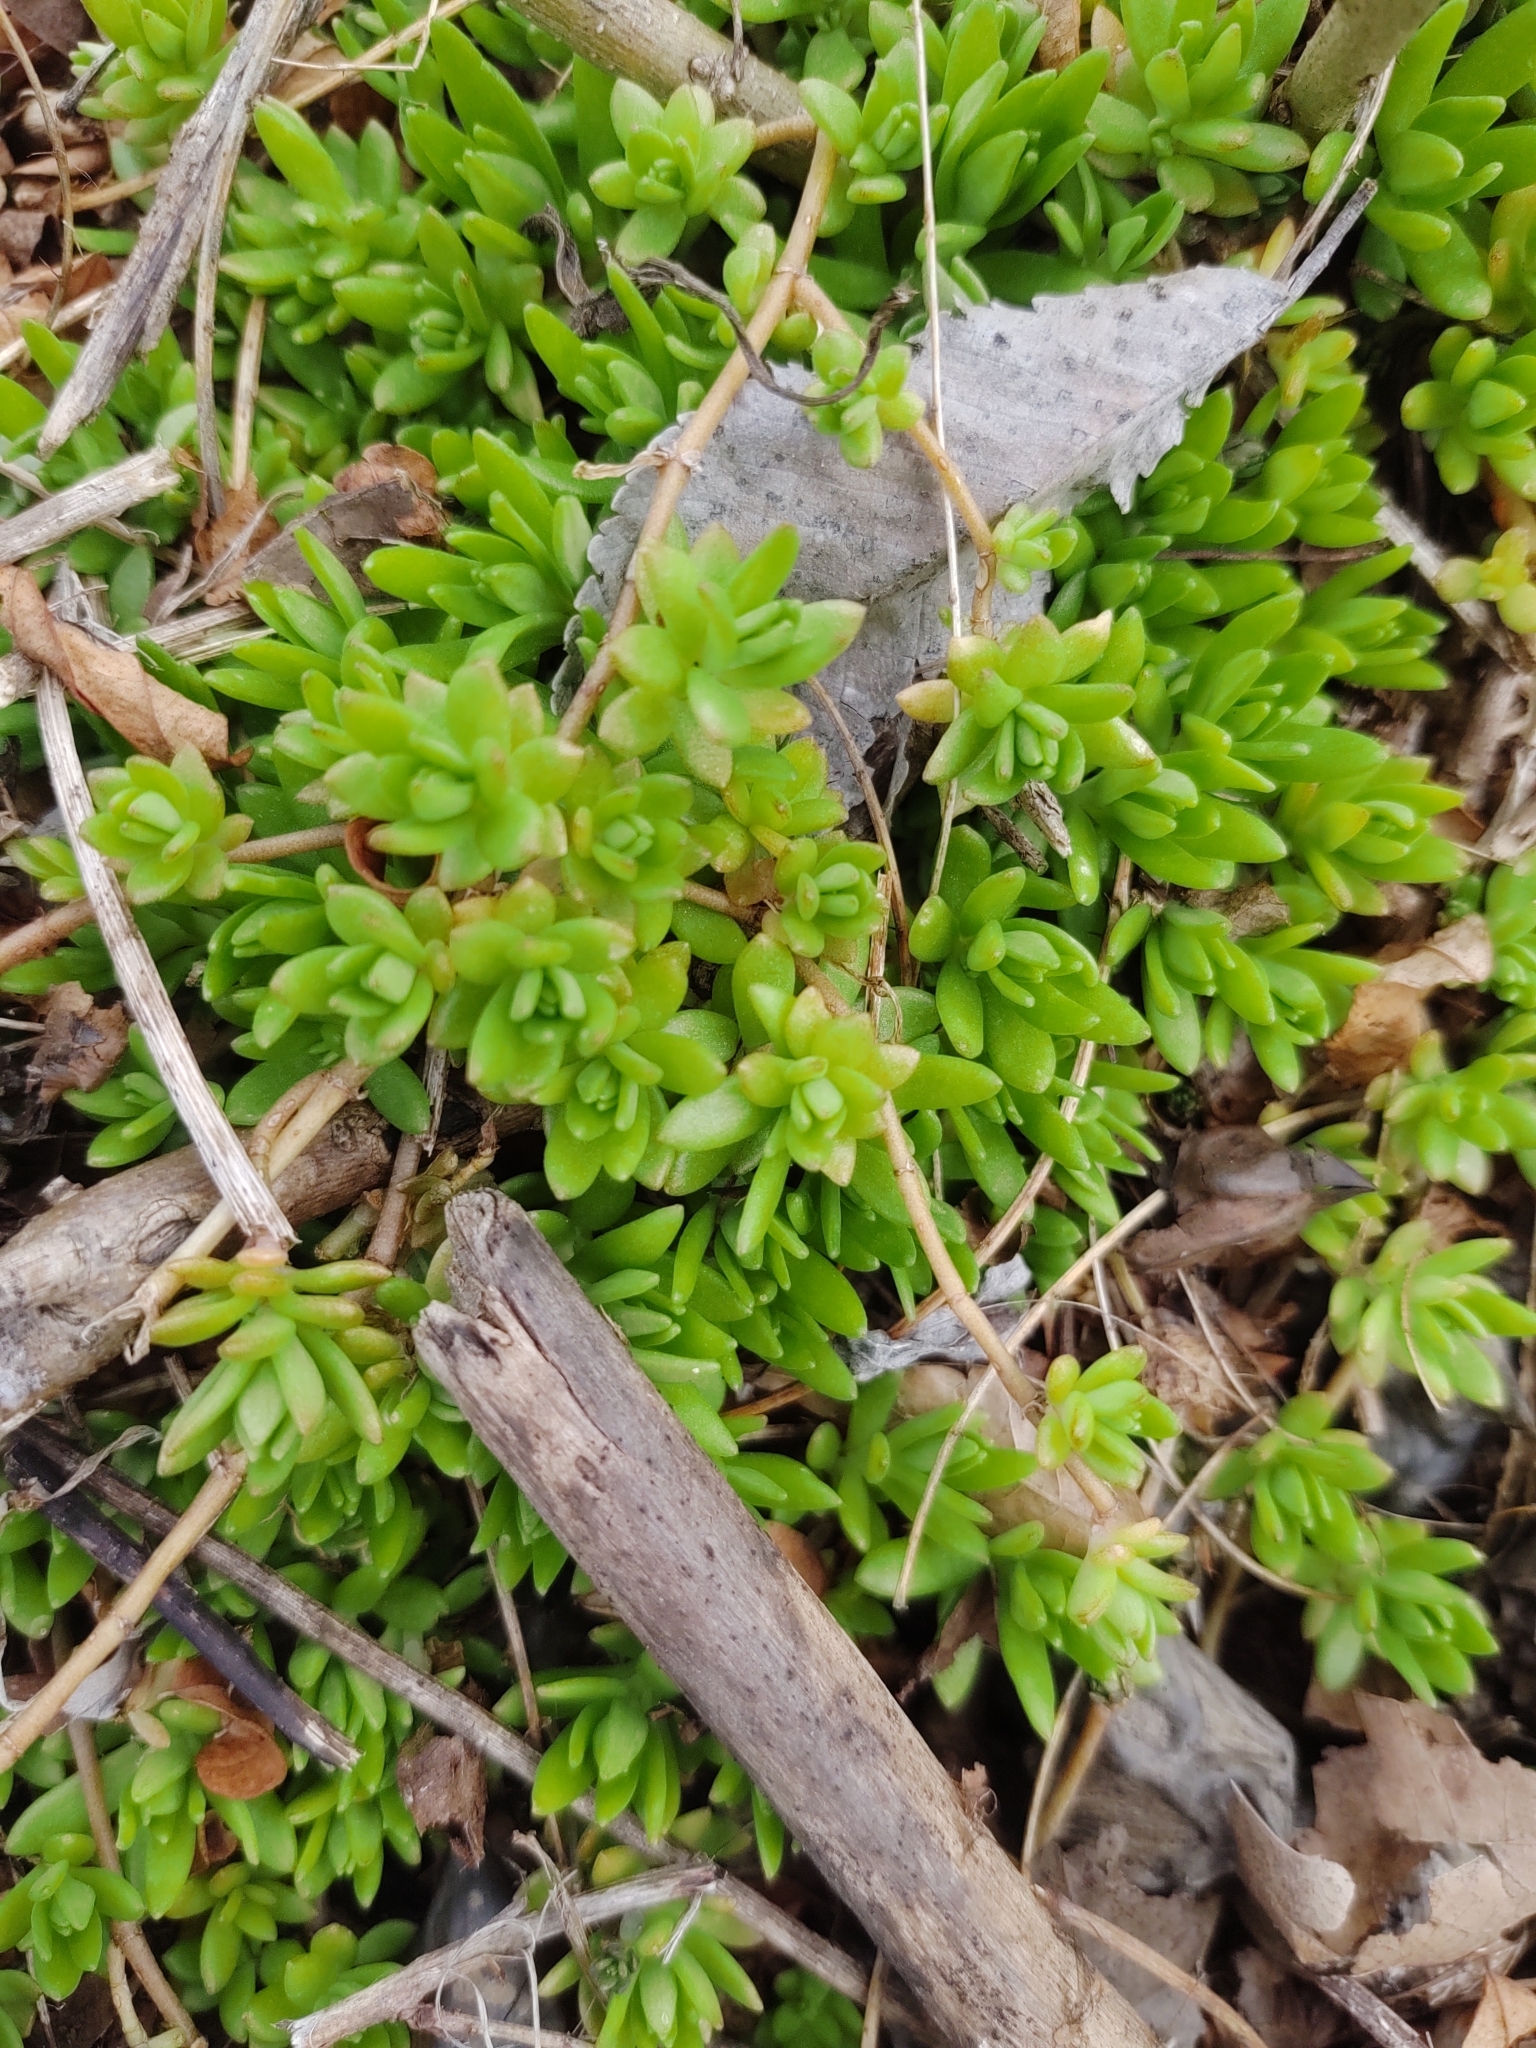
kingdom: Plantae
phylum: Tracheophyta
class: Magnoliopsida
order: Saxifragales
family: Crassulaceae
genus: Sedum
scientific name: Sedum sarmentosum
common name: Stringy stonecrop
